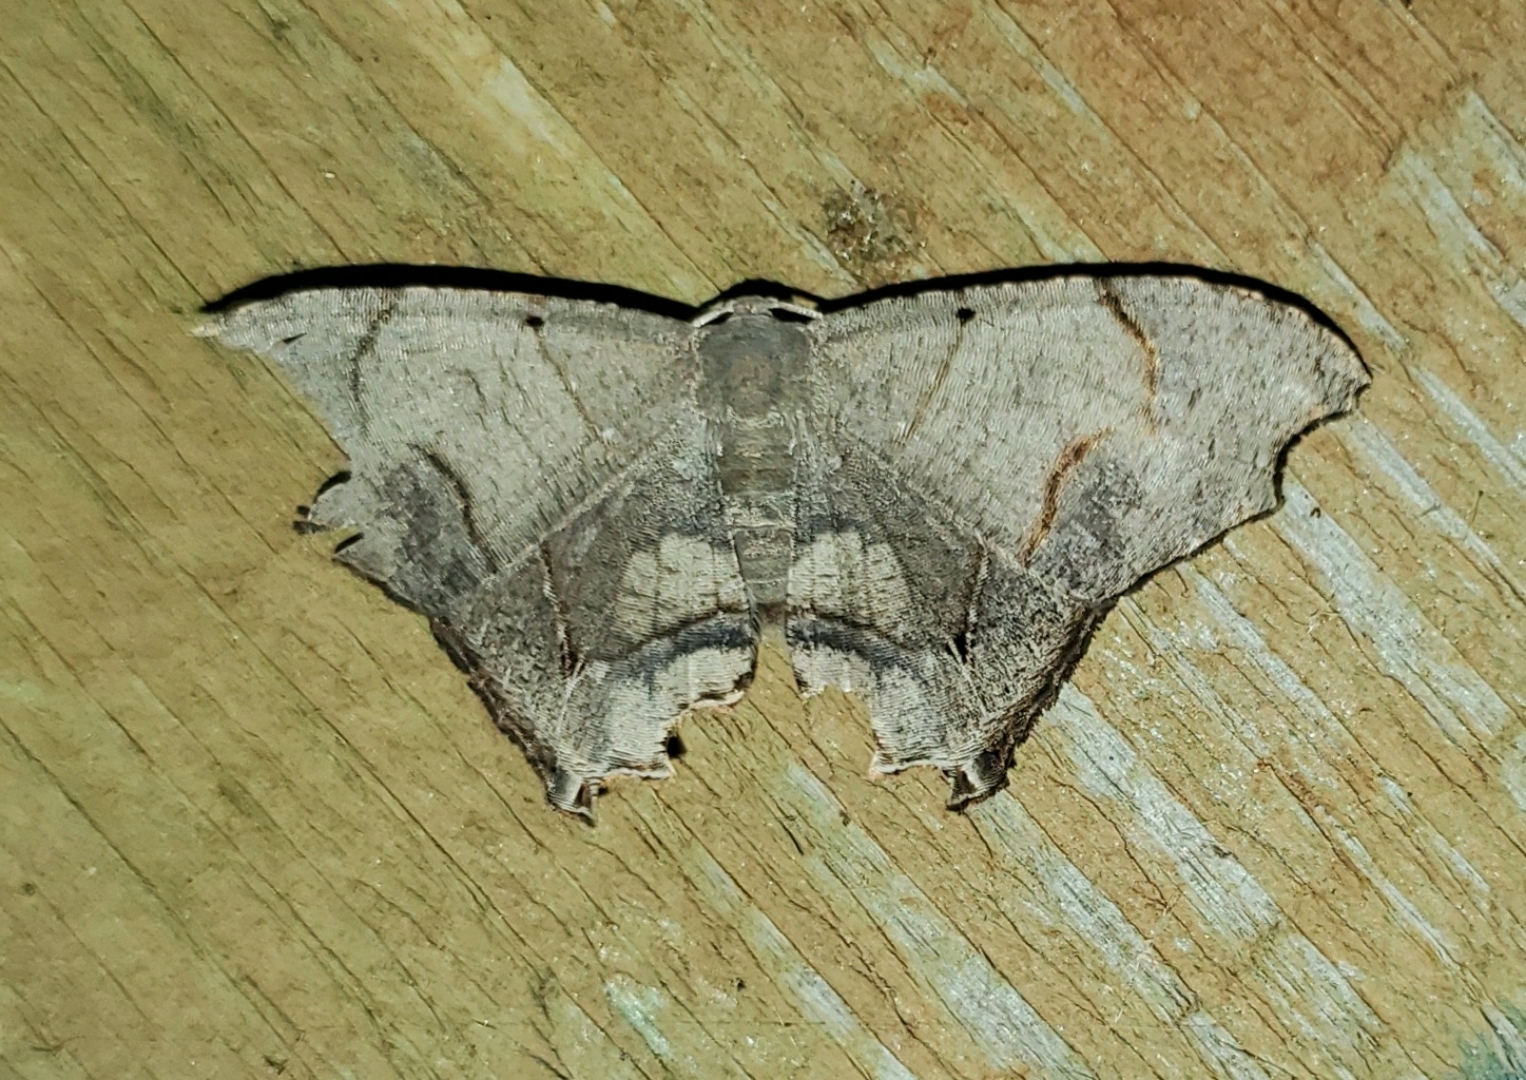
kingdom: Animalia
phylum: Arthropoda
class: Insecta
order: Lepidoptera
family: Uraniidae
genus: Trotorhombia
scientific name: Trotorhombia metachromata
